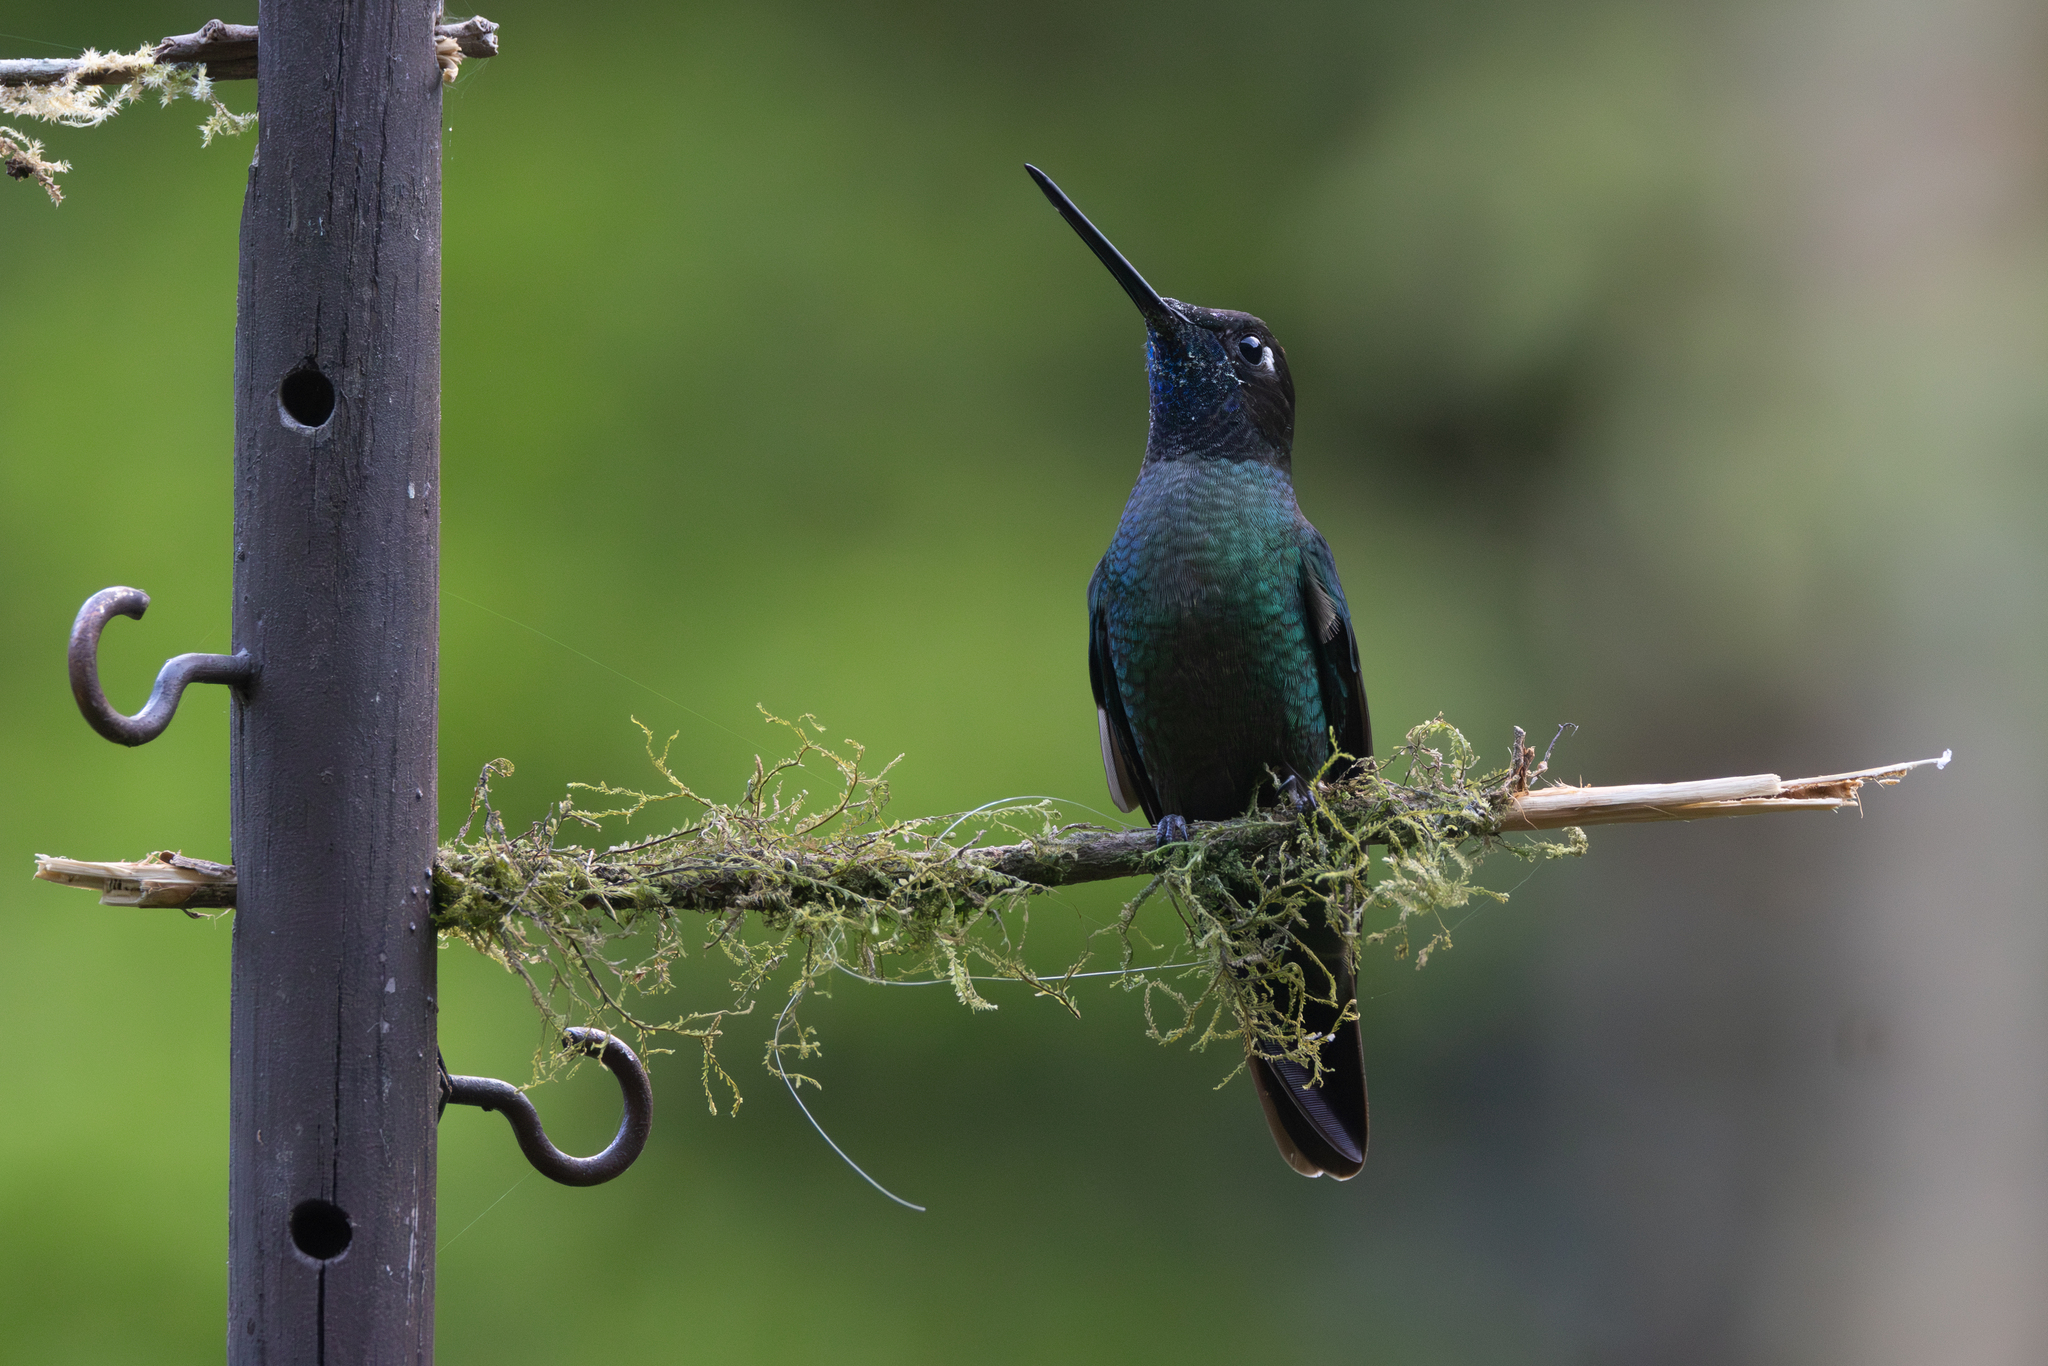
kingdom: Animalia
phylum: Chordata
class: Aves
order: Apodiformes
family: Trochilidae
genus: Eugenes
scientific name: Eugenes spectabilis
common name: Talamanca hummingbird
